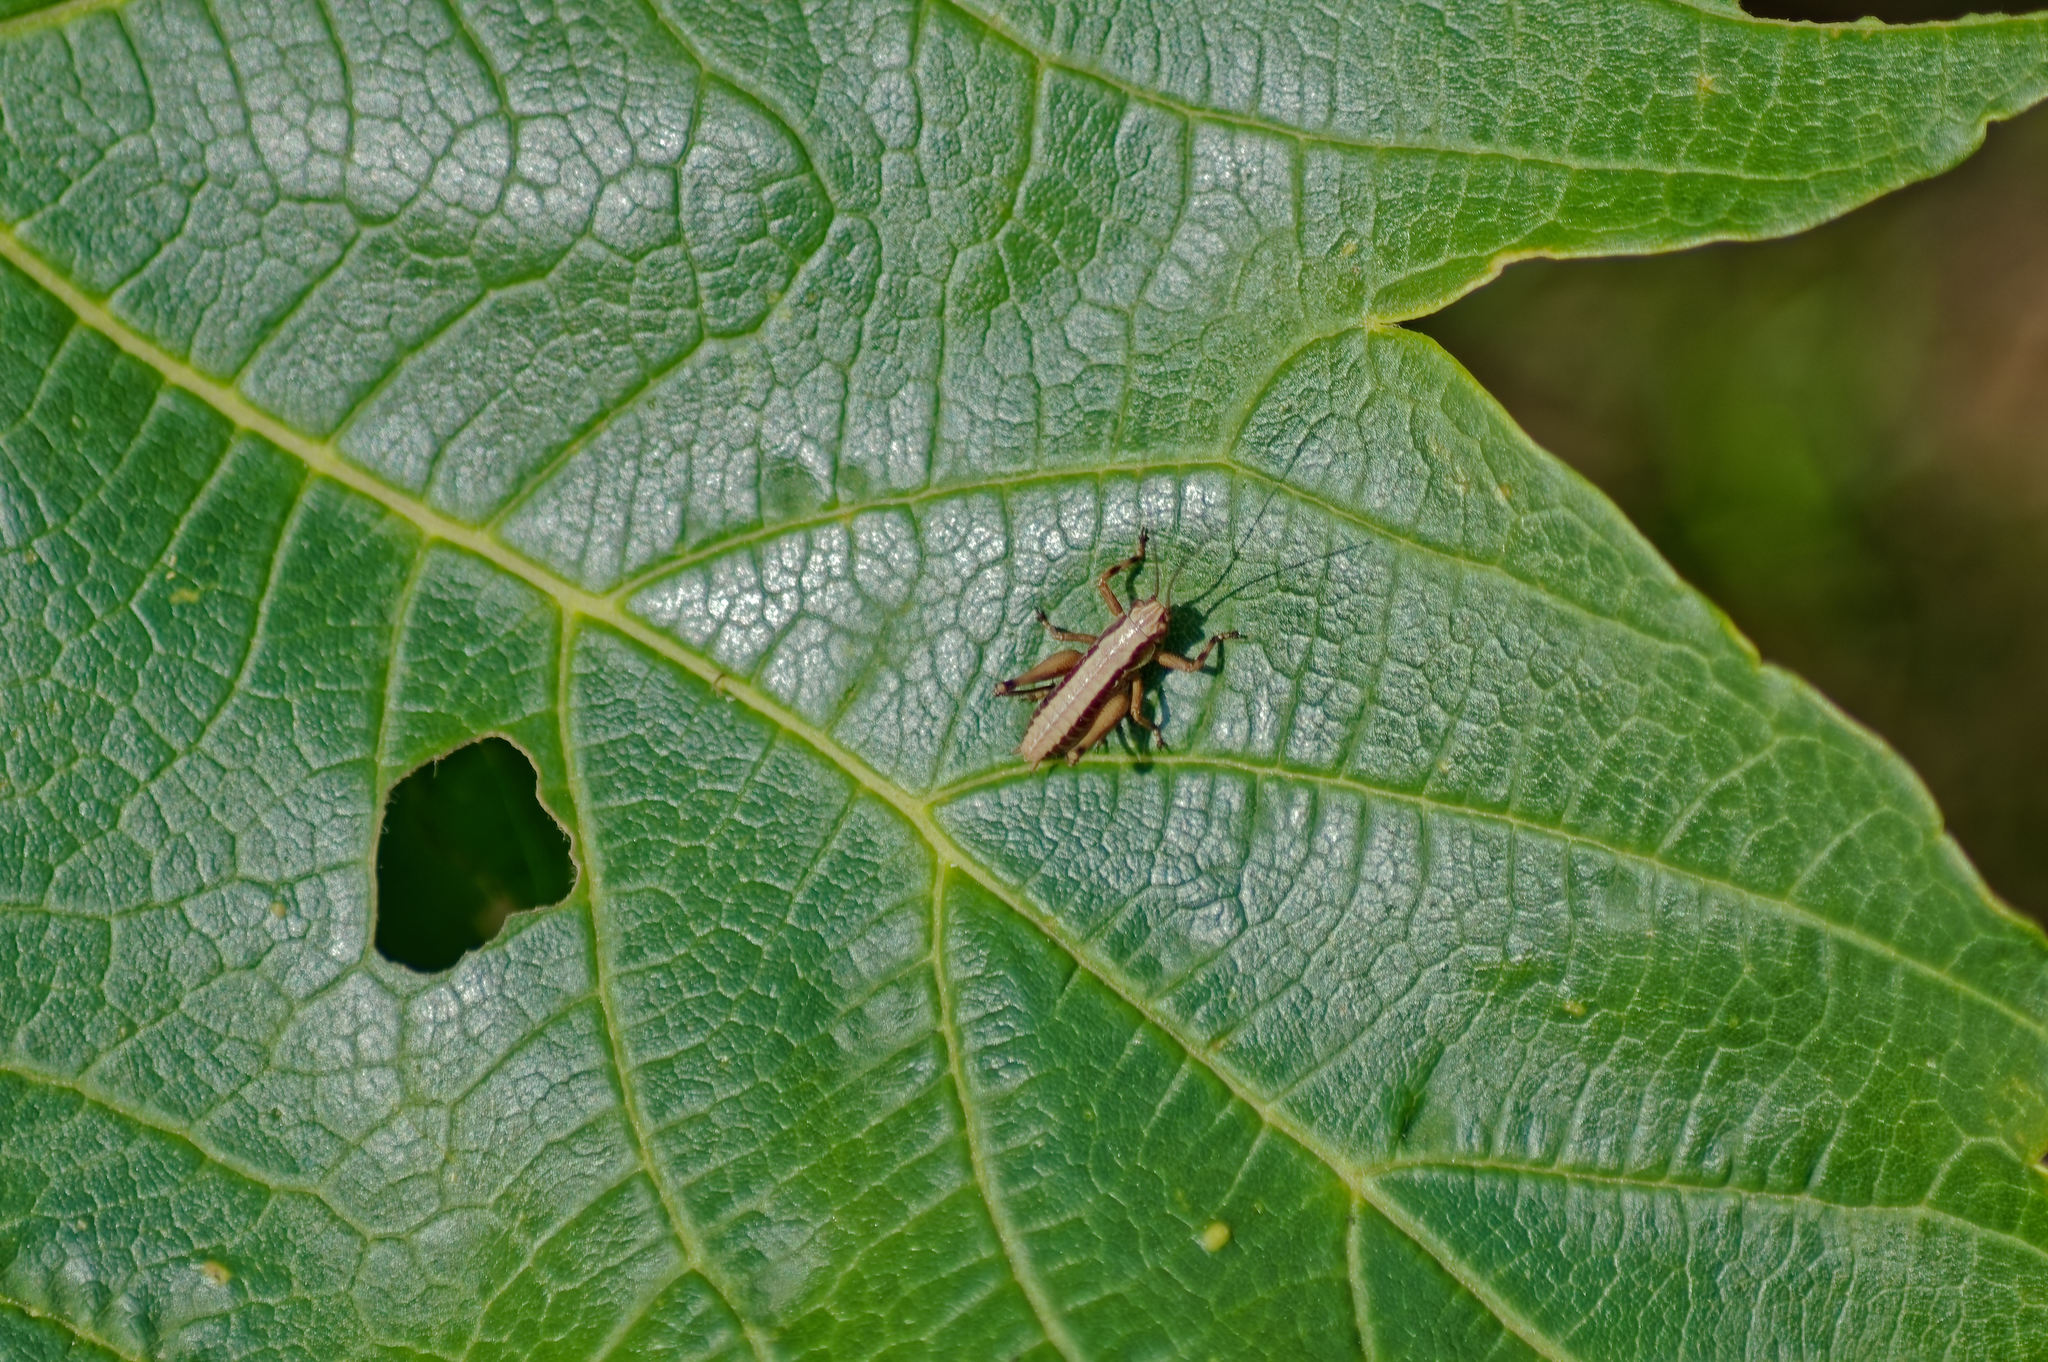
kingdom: Animalia
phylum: Arthropoda
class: Insecta
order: Orthoptera
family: Tettigoniidae
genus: Pholidoptera
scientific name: Pholidoptera griseoaptera
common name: Dark bush-cricket
